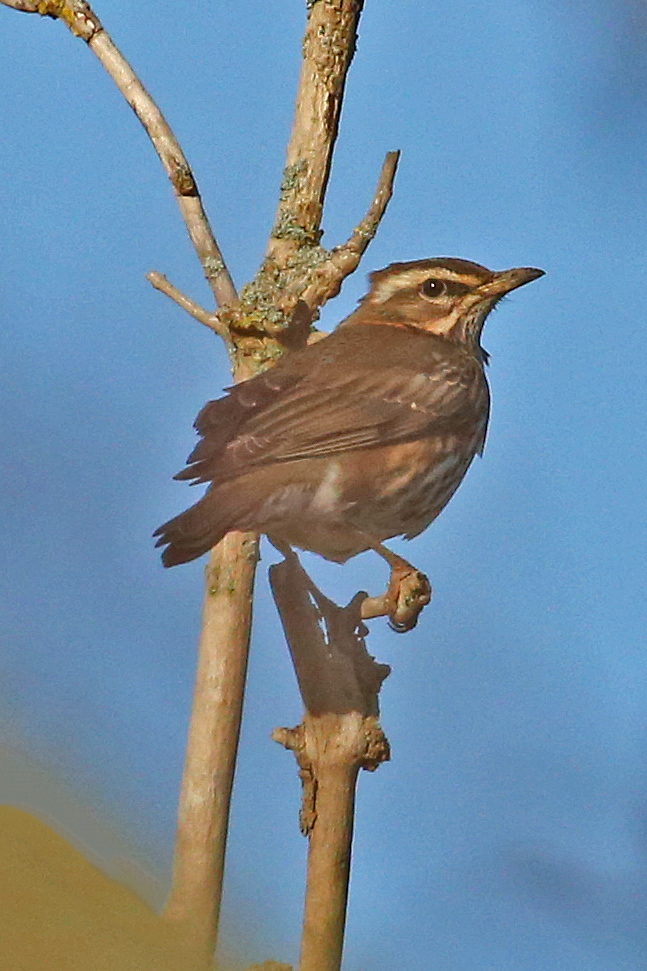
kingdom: Animalia
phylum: Chordata
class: Aves
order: Passeriformes
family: Turdidae
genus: Turdus
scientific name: Turdus iliacus
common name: Redwing
